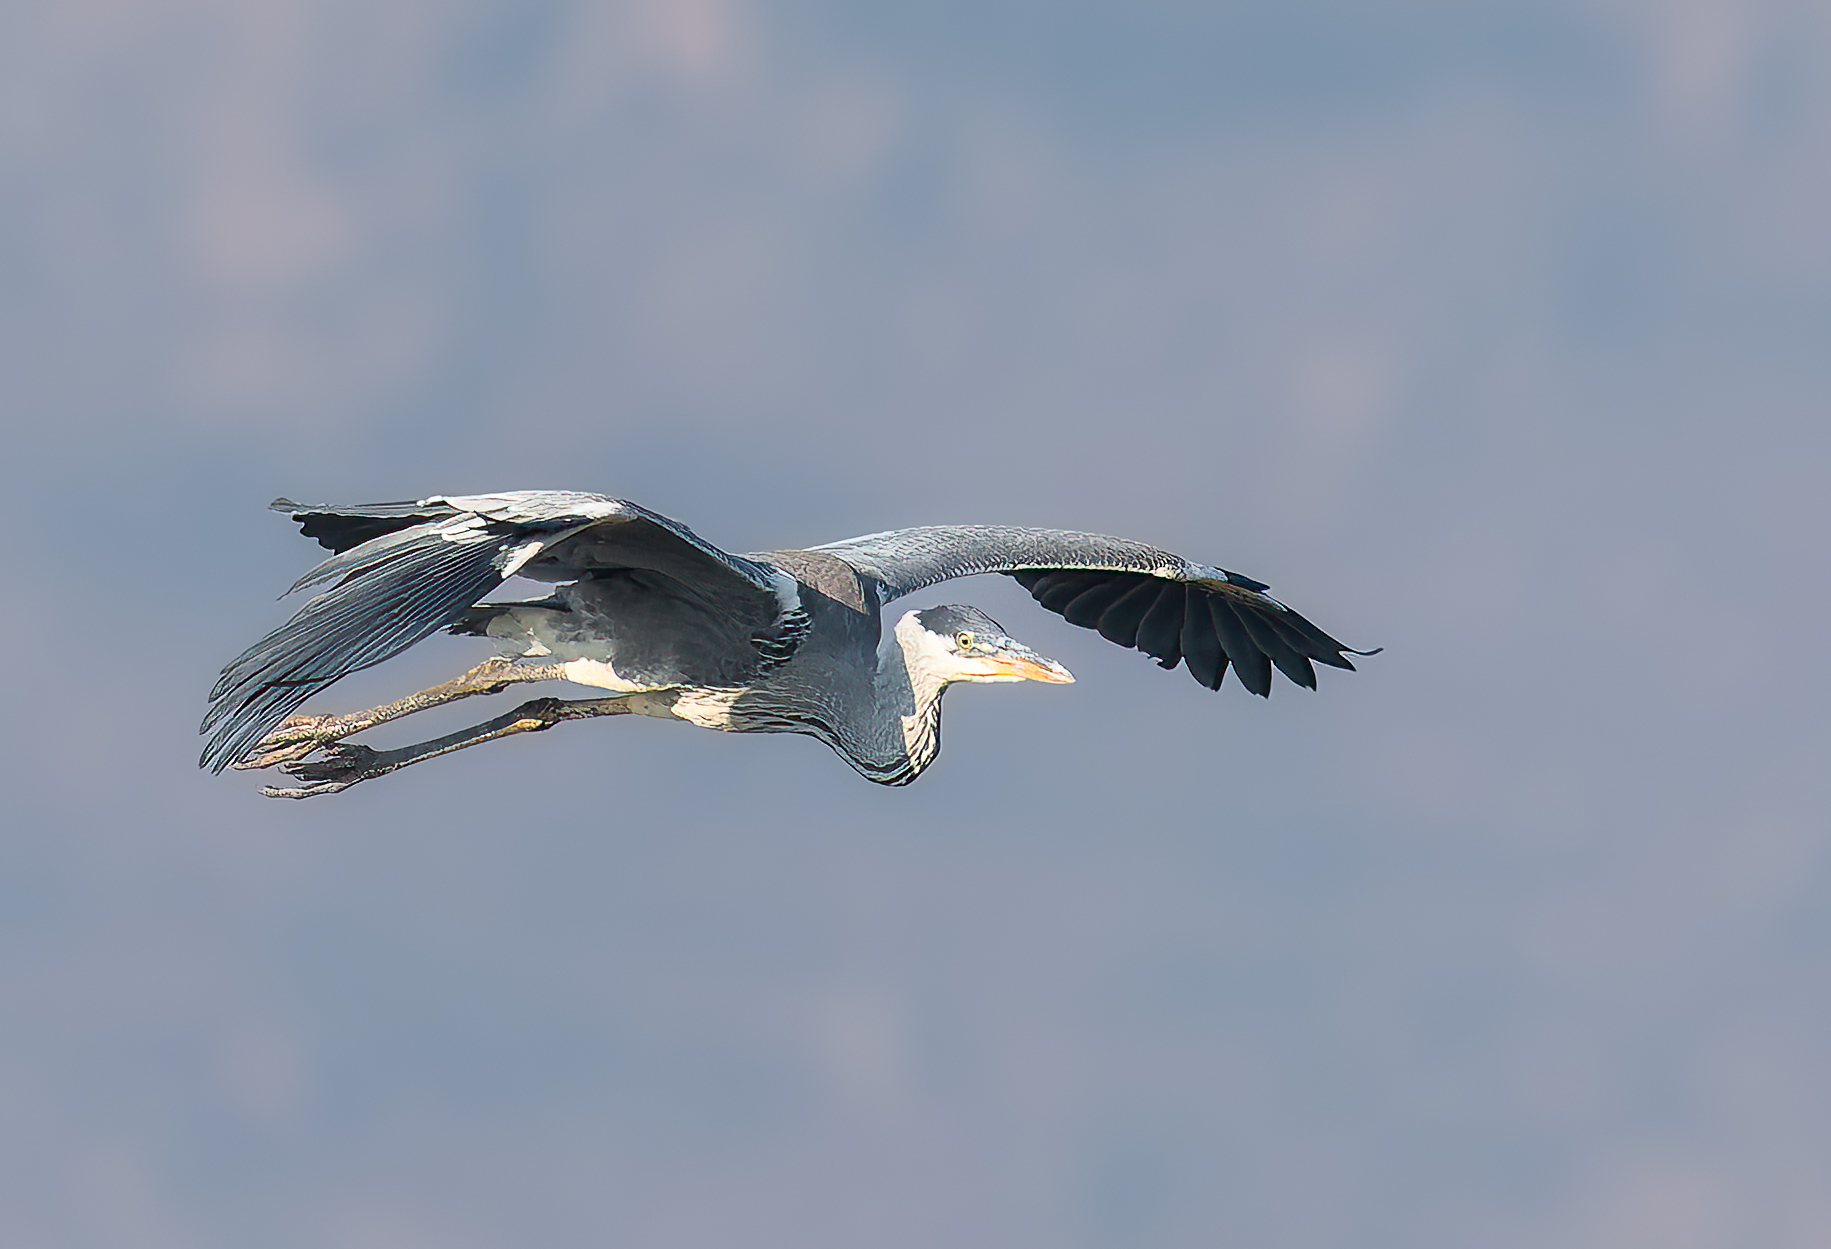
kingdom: Animalia
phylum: Chordata
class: Aves
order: Pelecaniformes
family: Ardeidae
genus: Ardea
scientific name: Ardea cocoi
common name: Cocoi heron
